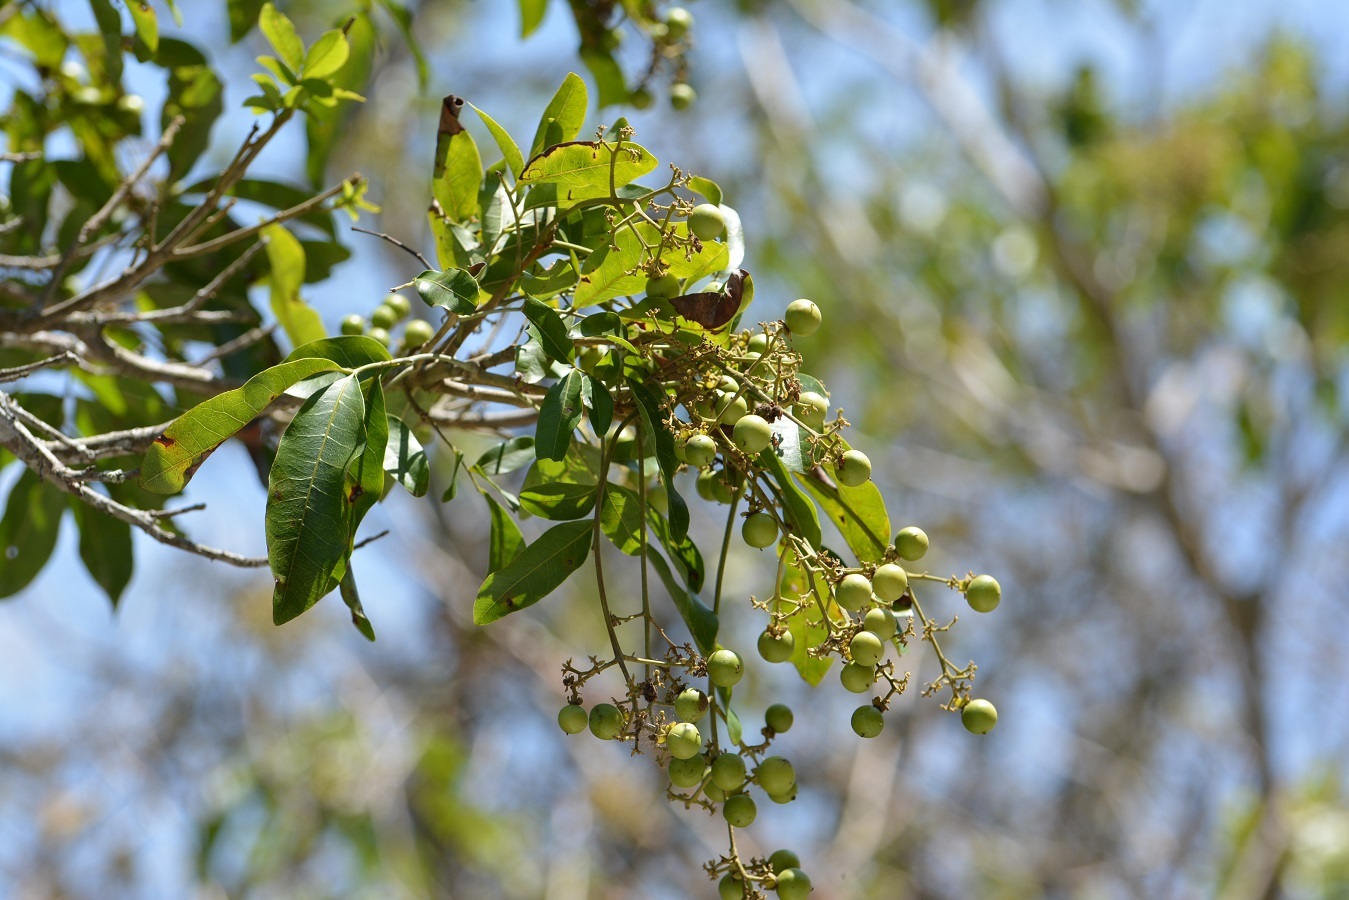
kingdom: Plantae
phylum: Tracheophyta
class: Magnoliopsida
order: Sapindales
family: Sapindaceae
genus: Sapindus
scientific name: Sapindus drummondii
